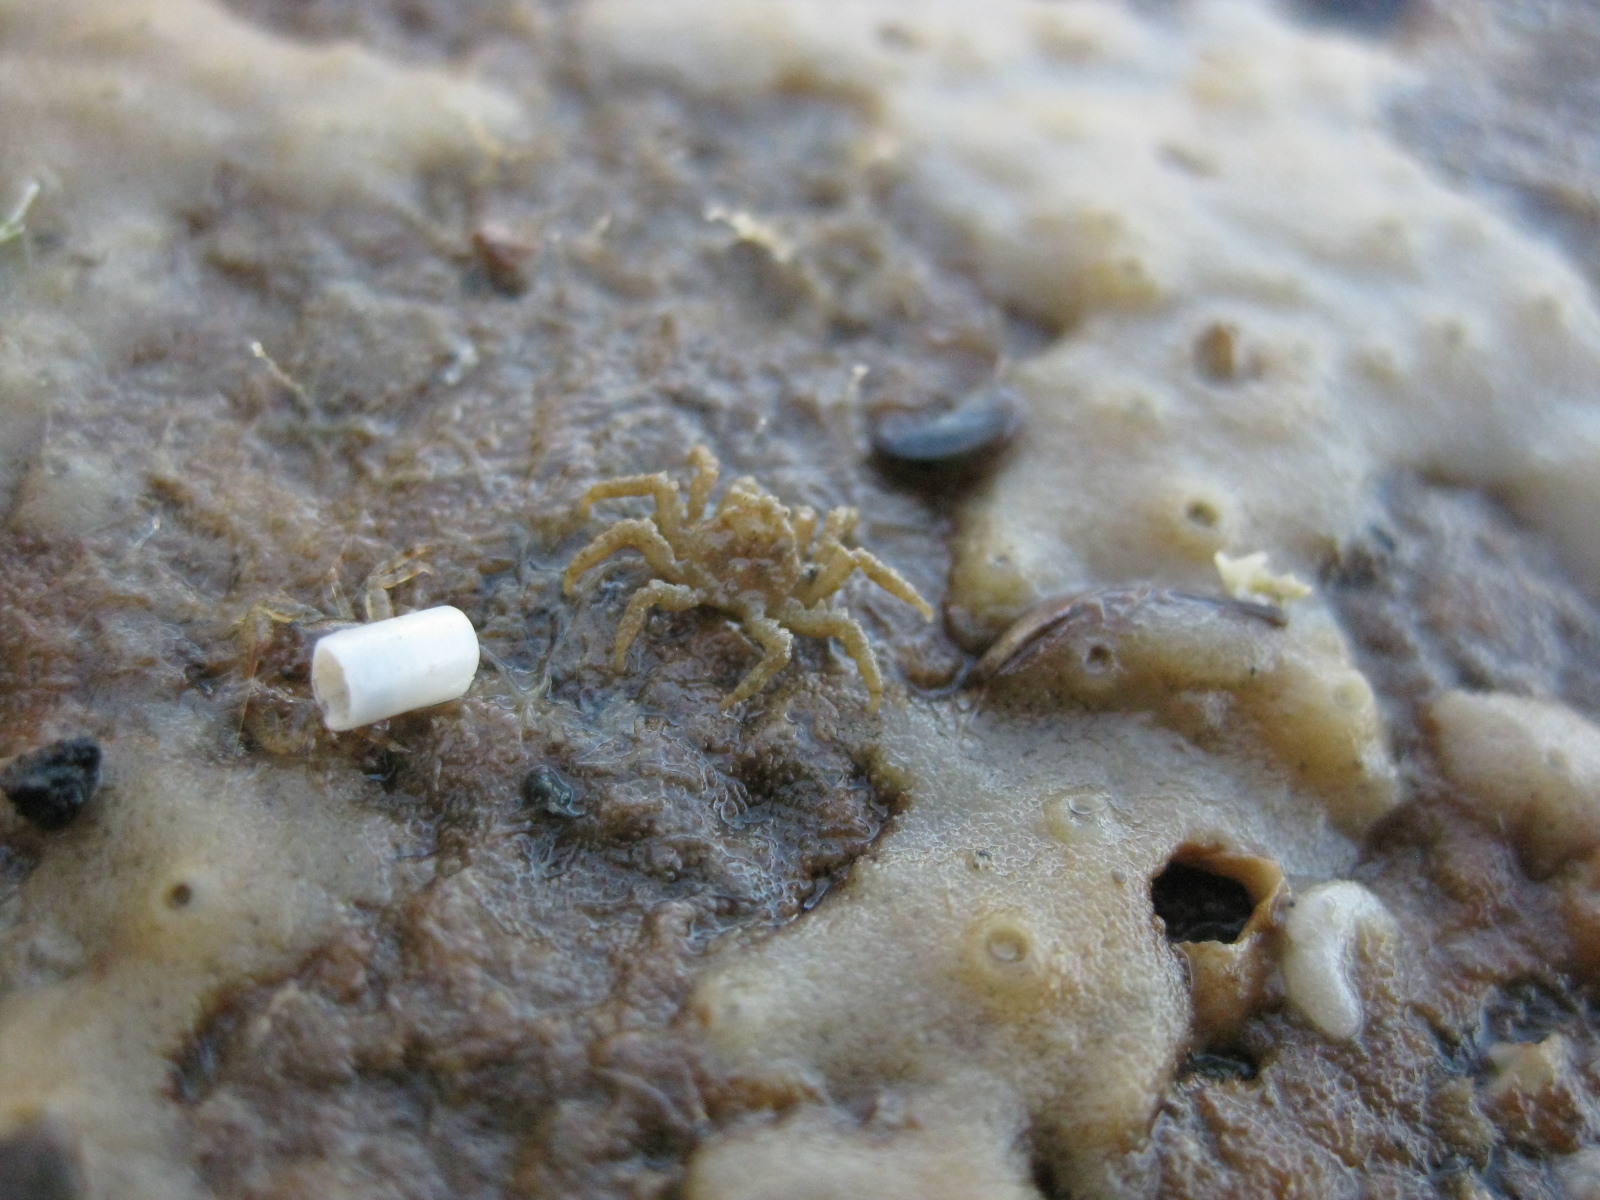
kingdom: Animalia
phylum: Arthropoda
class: Malacostraca
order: Decapoda
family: Hymenosomatidae
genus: Neohymenicus
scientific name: Neohymenicus pubescens
